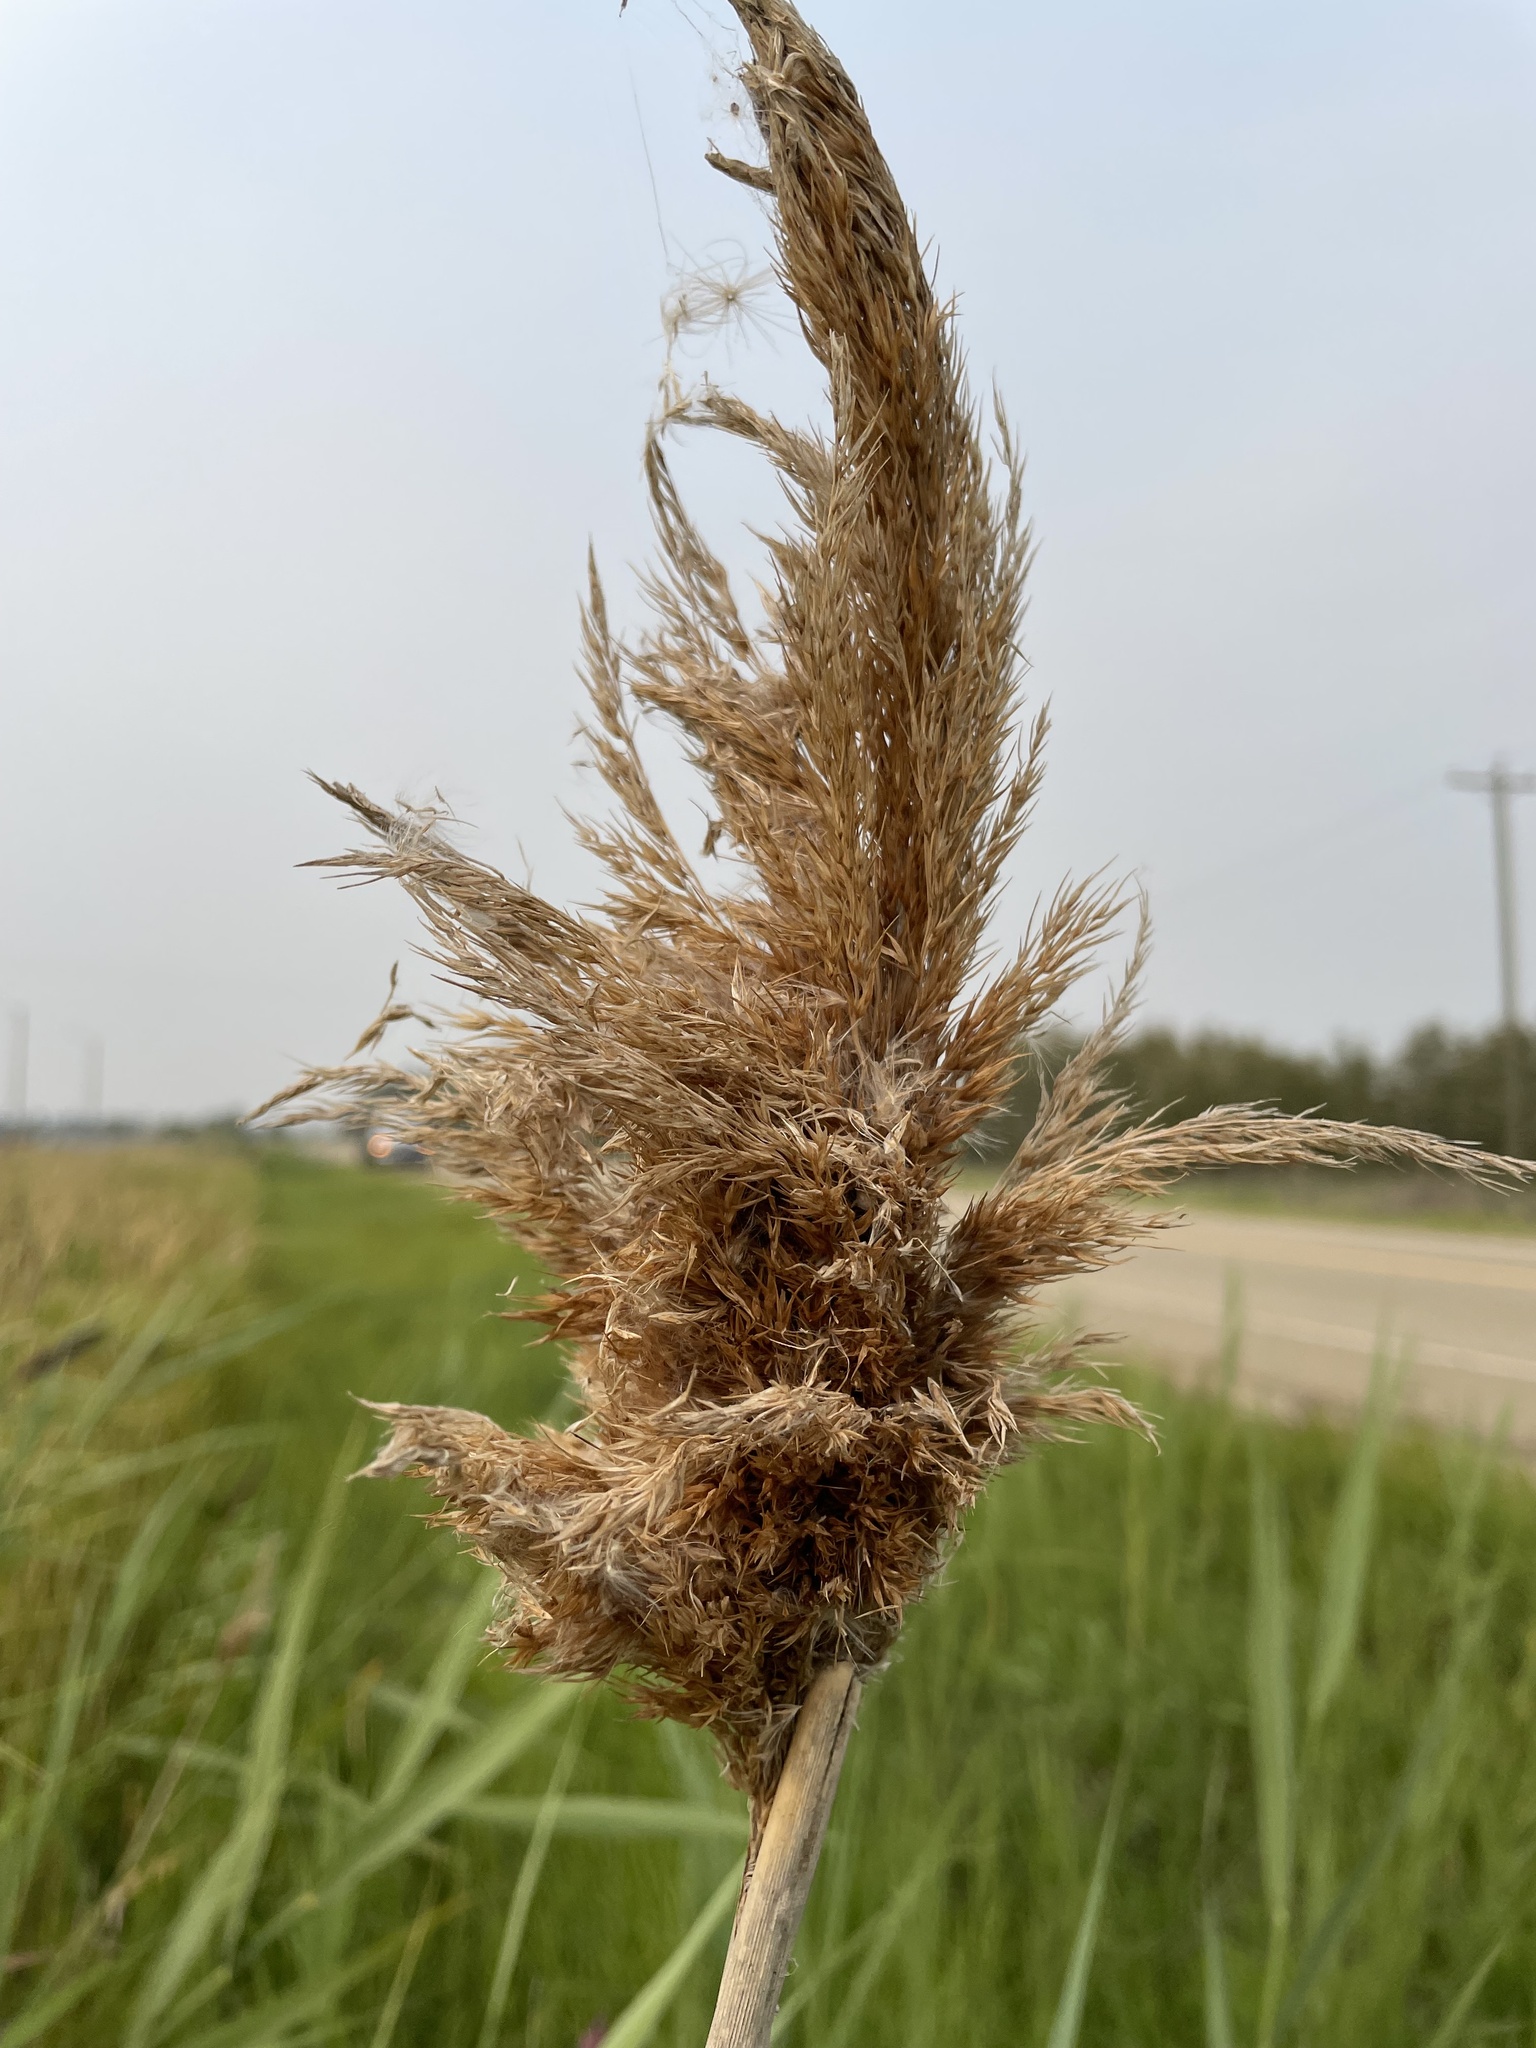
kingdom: Plantae
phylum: Tracheophyta
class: Liliopsida
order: Poales
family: Poaceae
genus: Phragmites
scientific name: Phragmites australis
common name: Common reed
